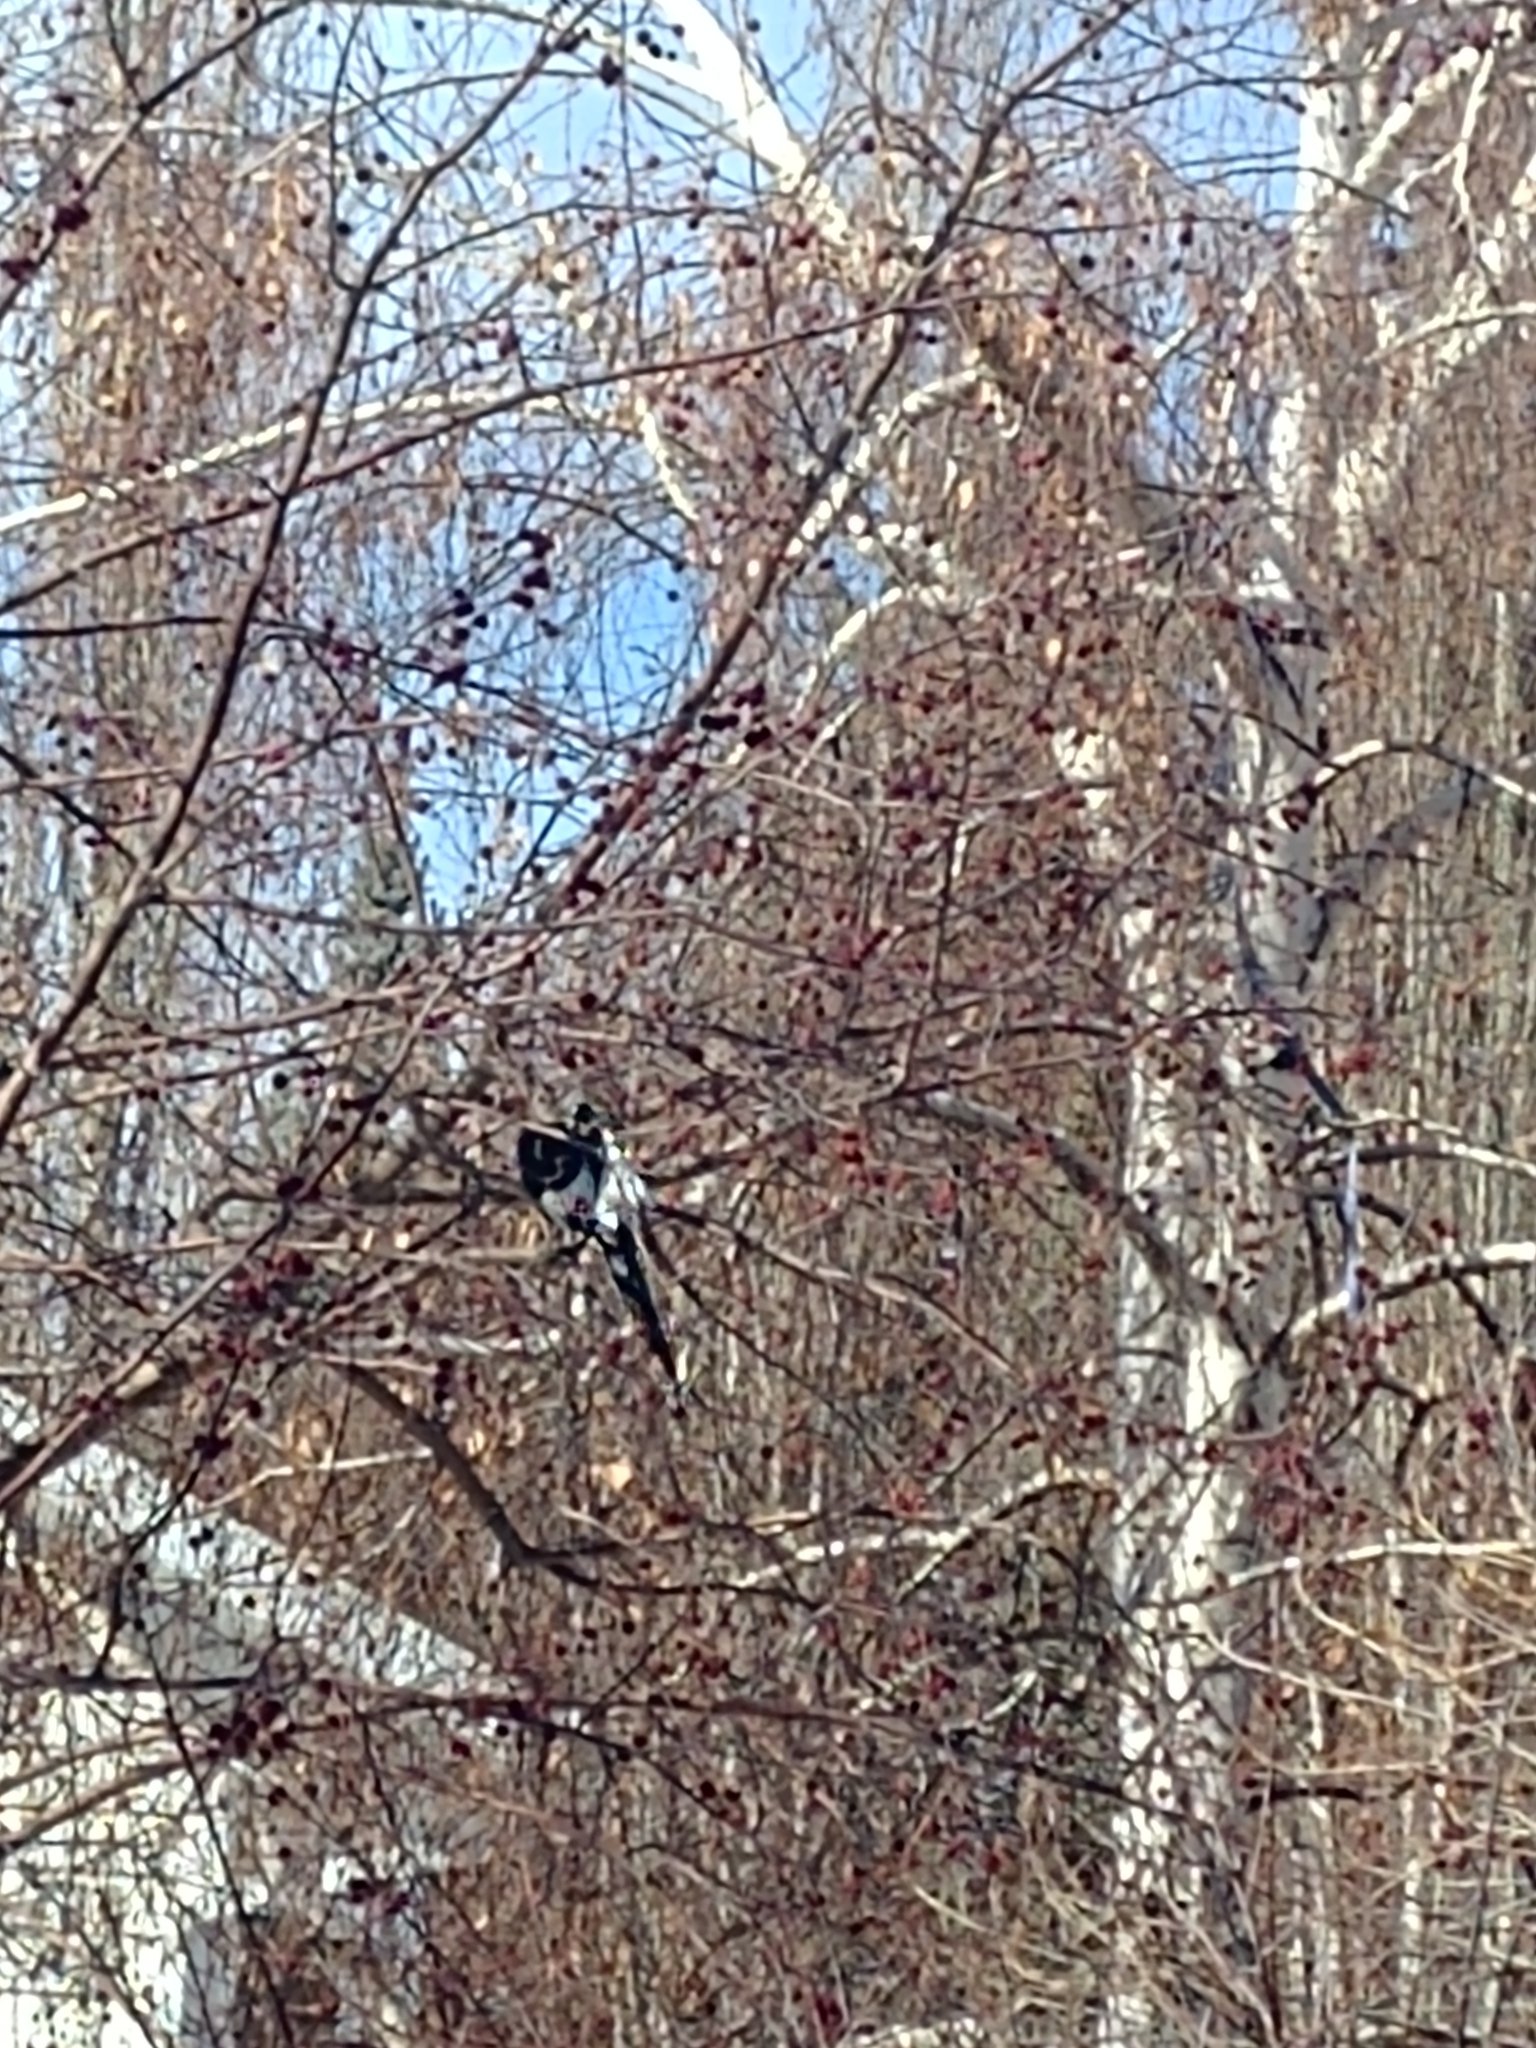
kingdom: Animalia
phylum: Chordata
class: Aves
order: Passeriformes
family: Corvidae
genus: Pica
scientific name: Pica hudsonia
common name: Black-billed magpie
